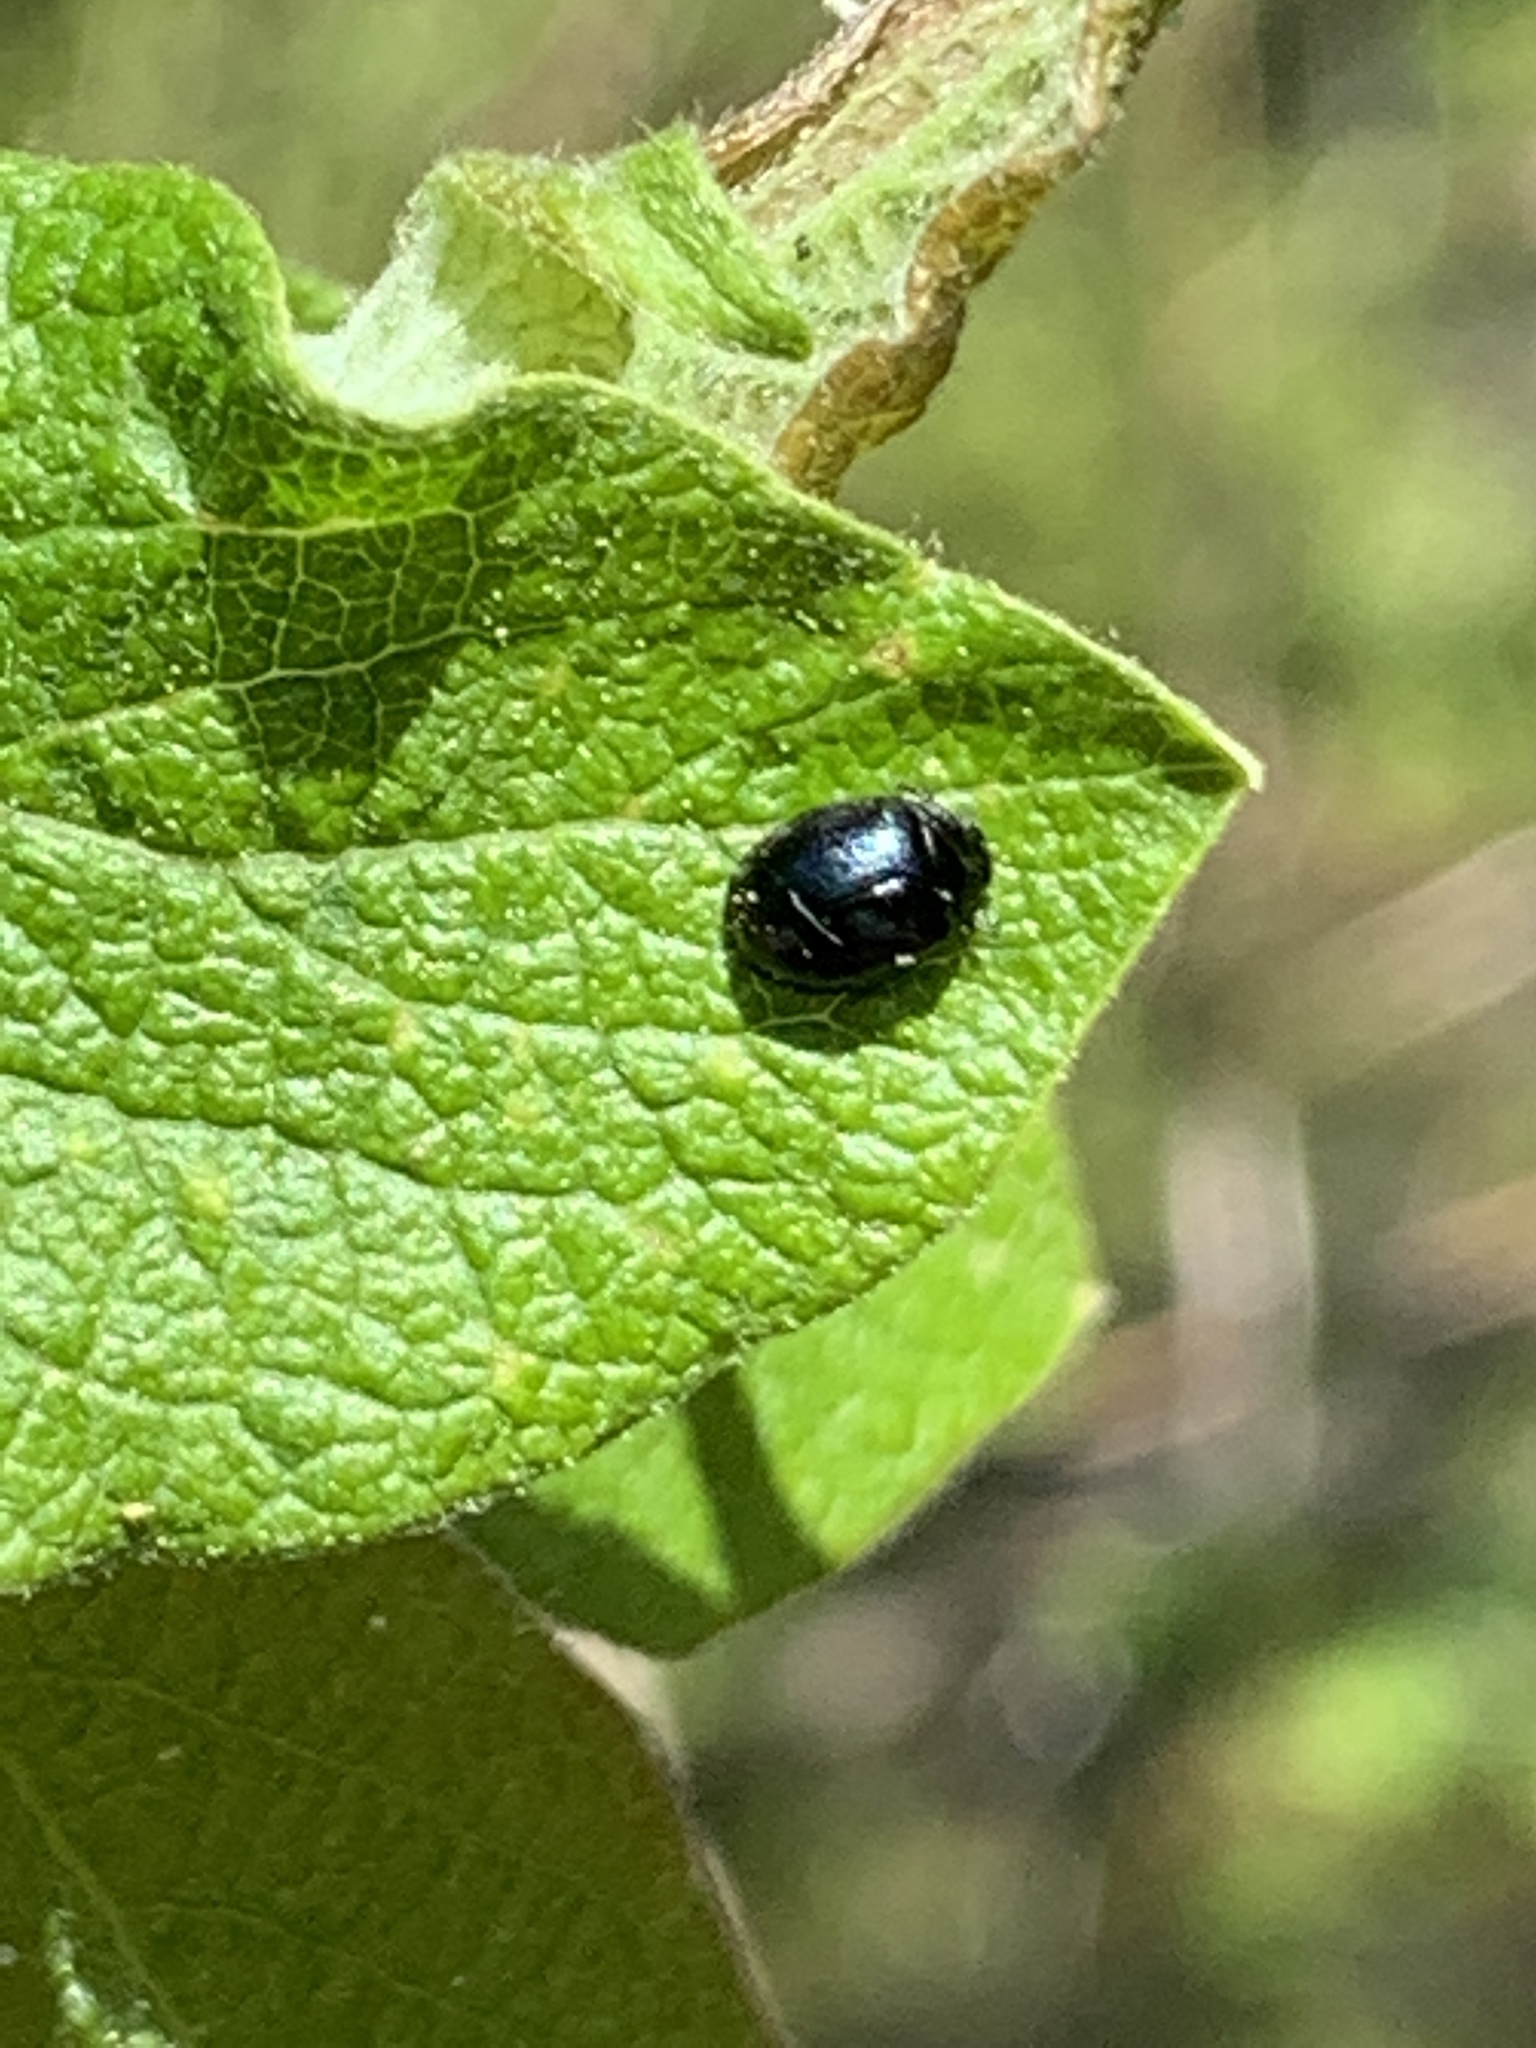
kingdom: Animalia
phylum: Arthropoda
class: Insecta
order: Coleoptera
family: Chrysomelidae
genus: Plagiodera
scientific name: Plagiodera versicolora
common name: Imported willow leaf beetle
